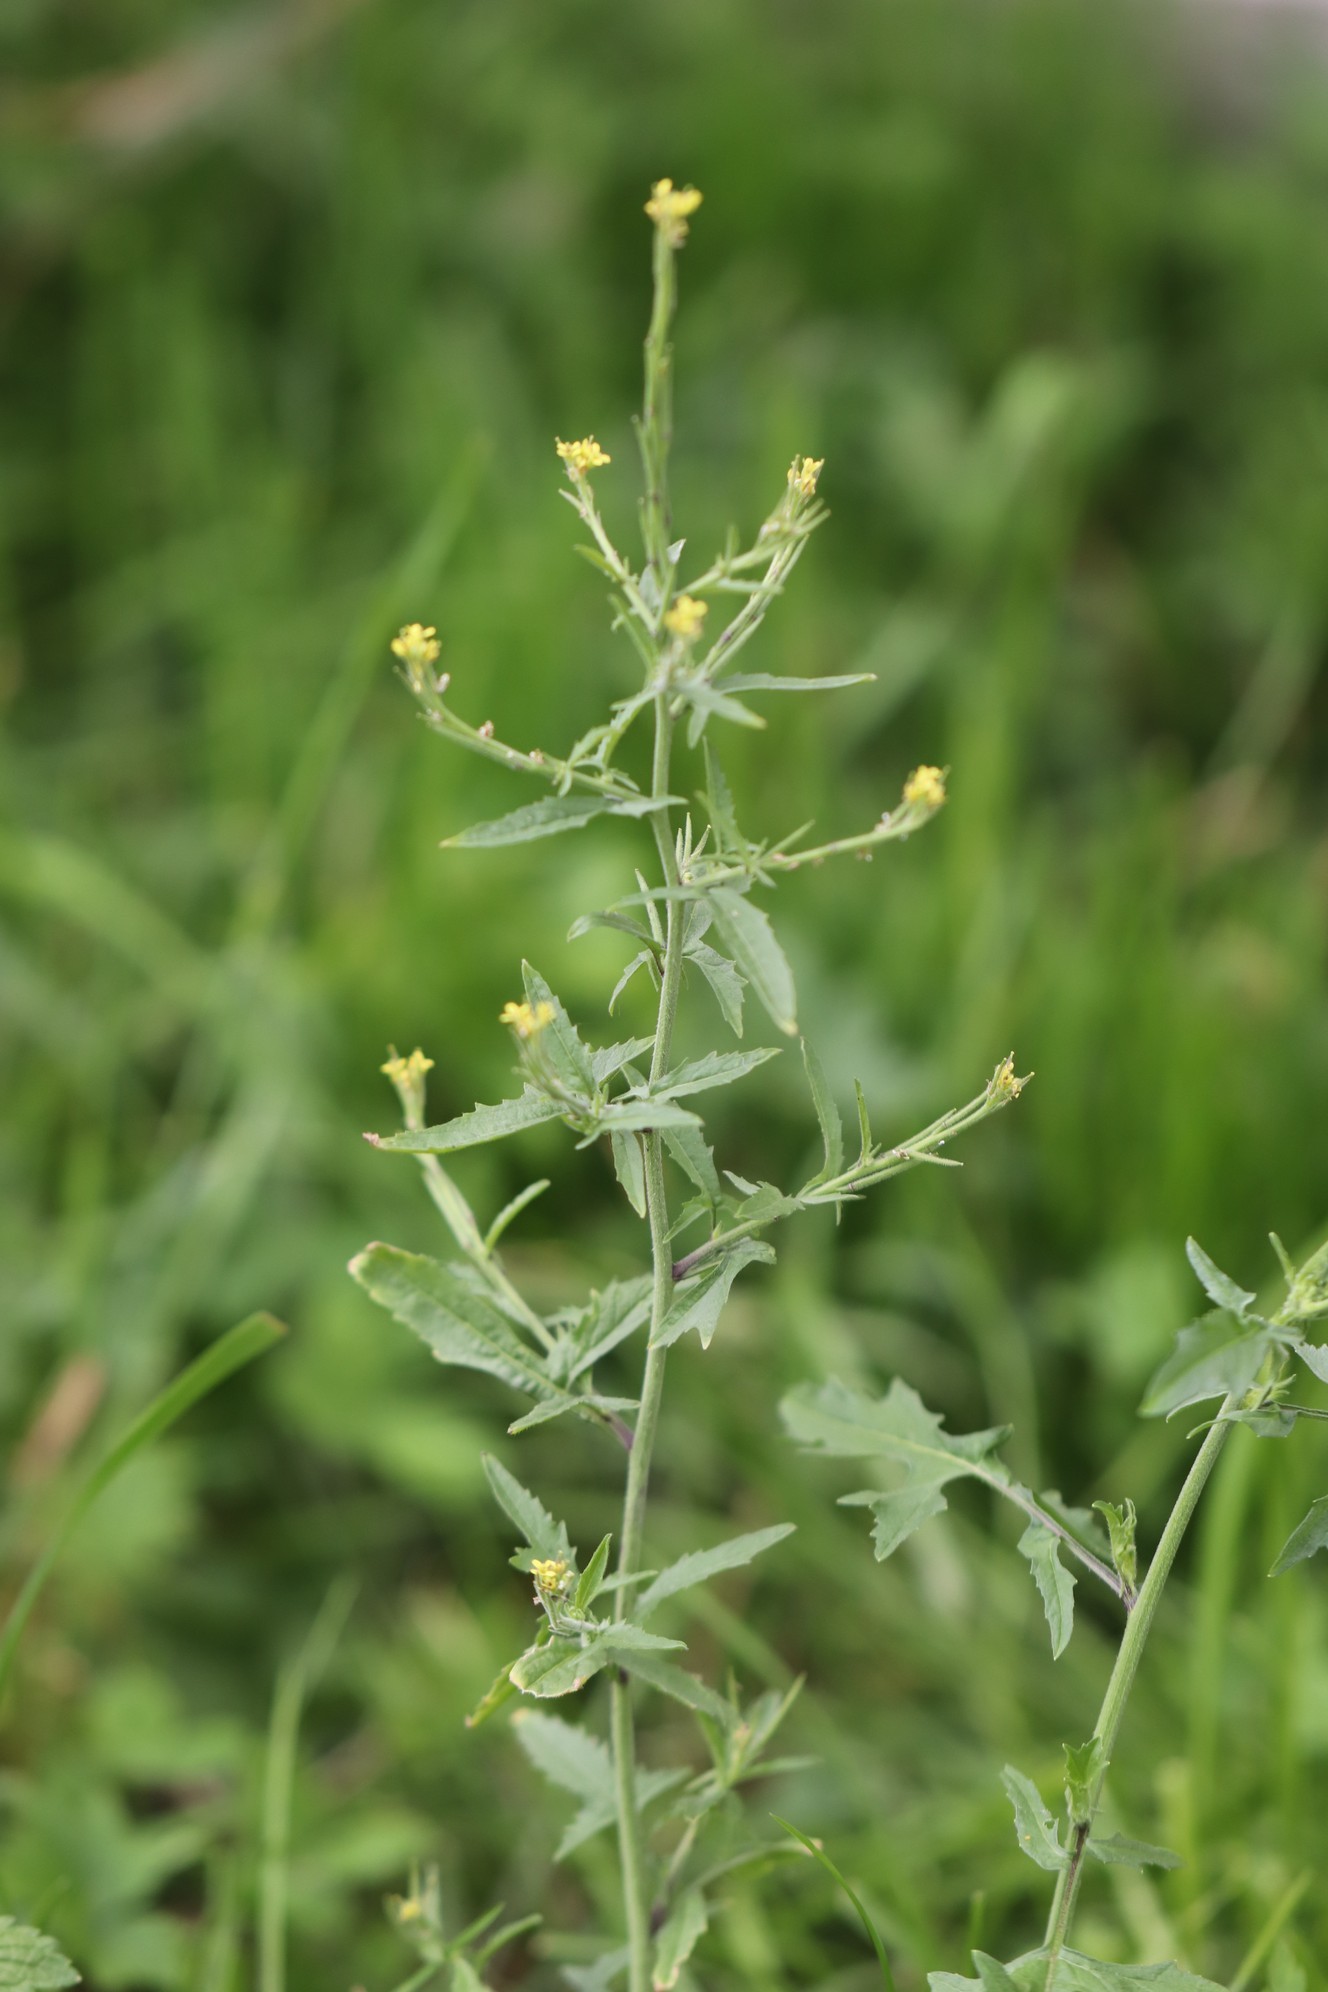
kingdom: Plantae
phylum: Tracheophyta
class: Magnoliopsida
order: Brassicales
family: Brassicaceae
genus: Sisymbrium
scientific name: Sisymbrium officinale
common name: Hedge mustard
